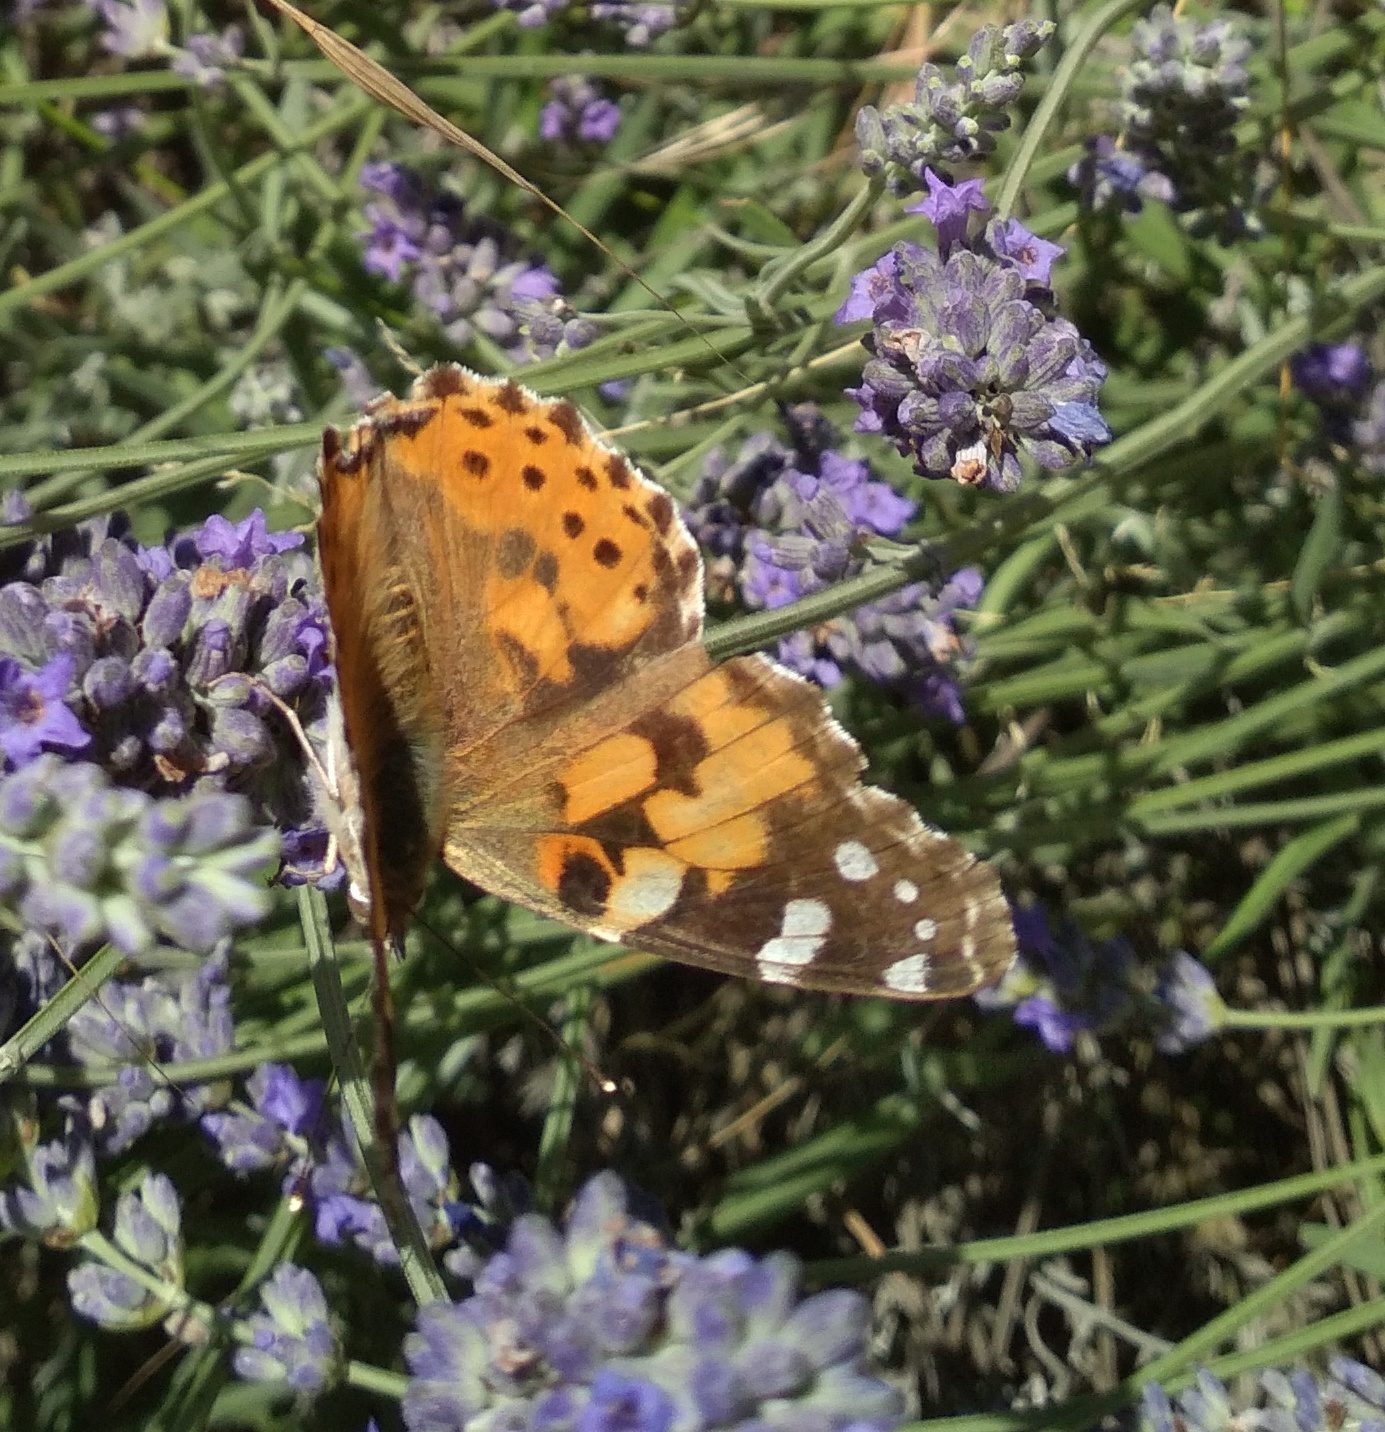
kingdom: Animalia
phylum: Arthropoda
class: Insecta
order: Lepidoptera
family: Nymphalidae
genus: Vanessa
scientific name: Vanessa cardui
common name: Painted lady
